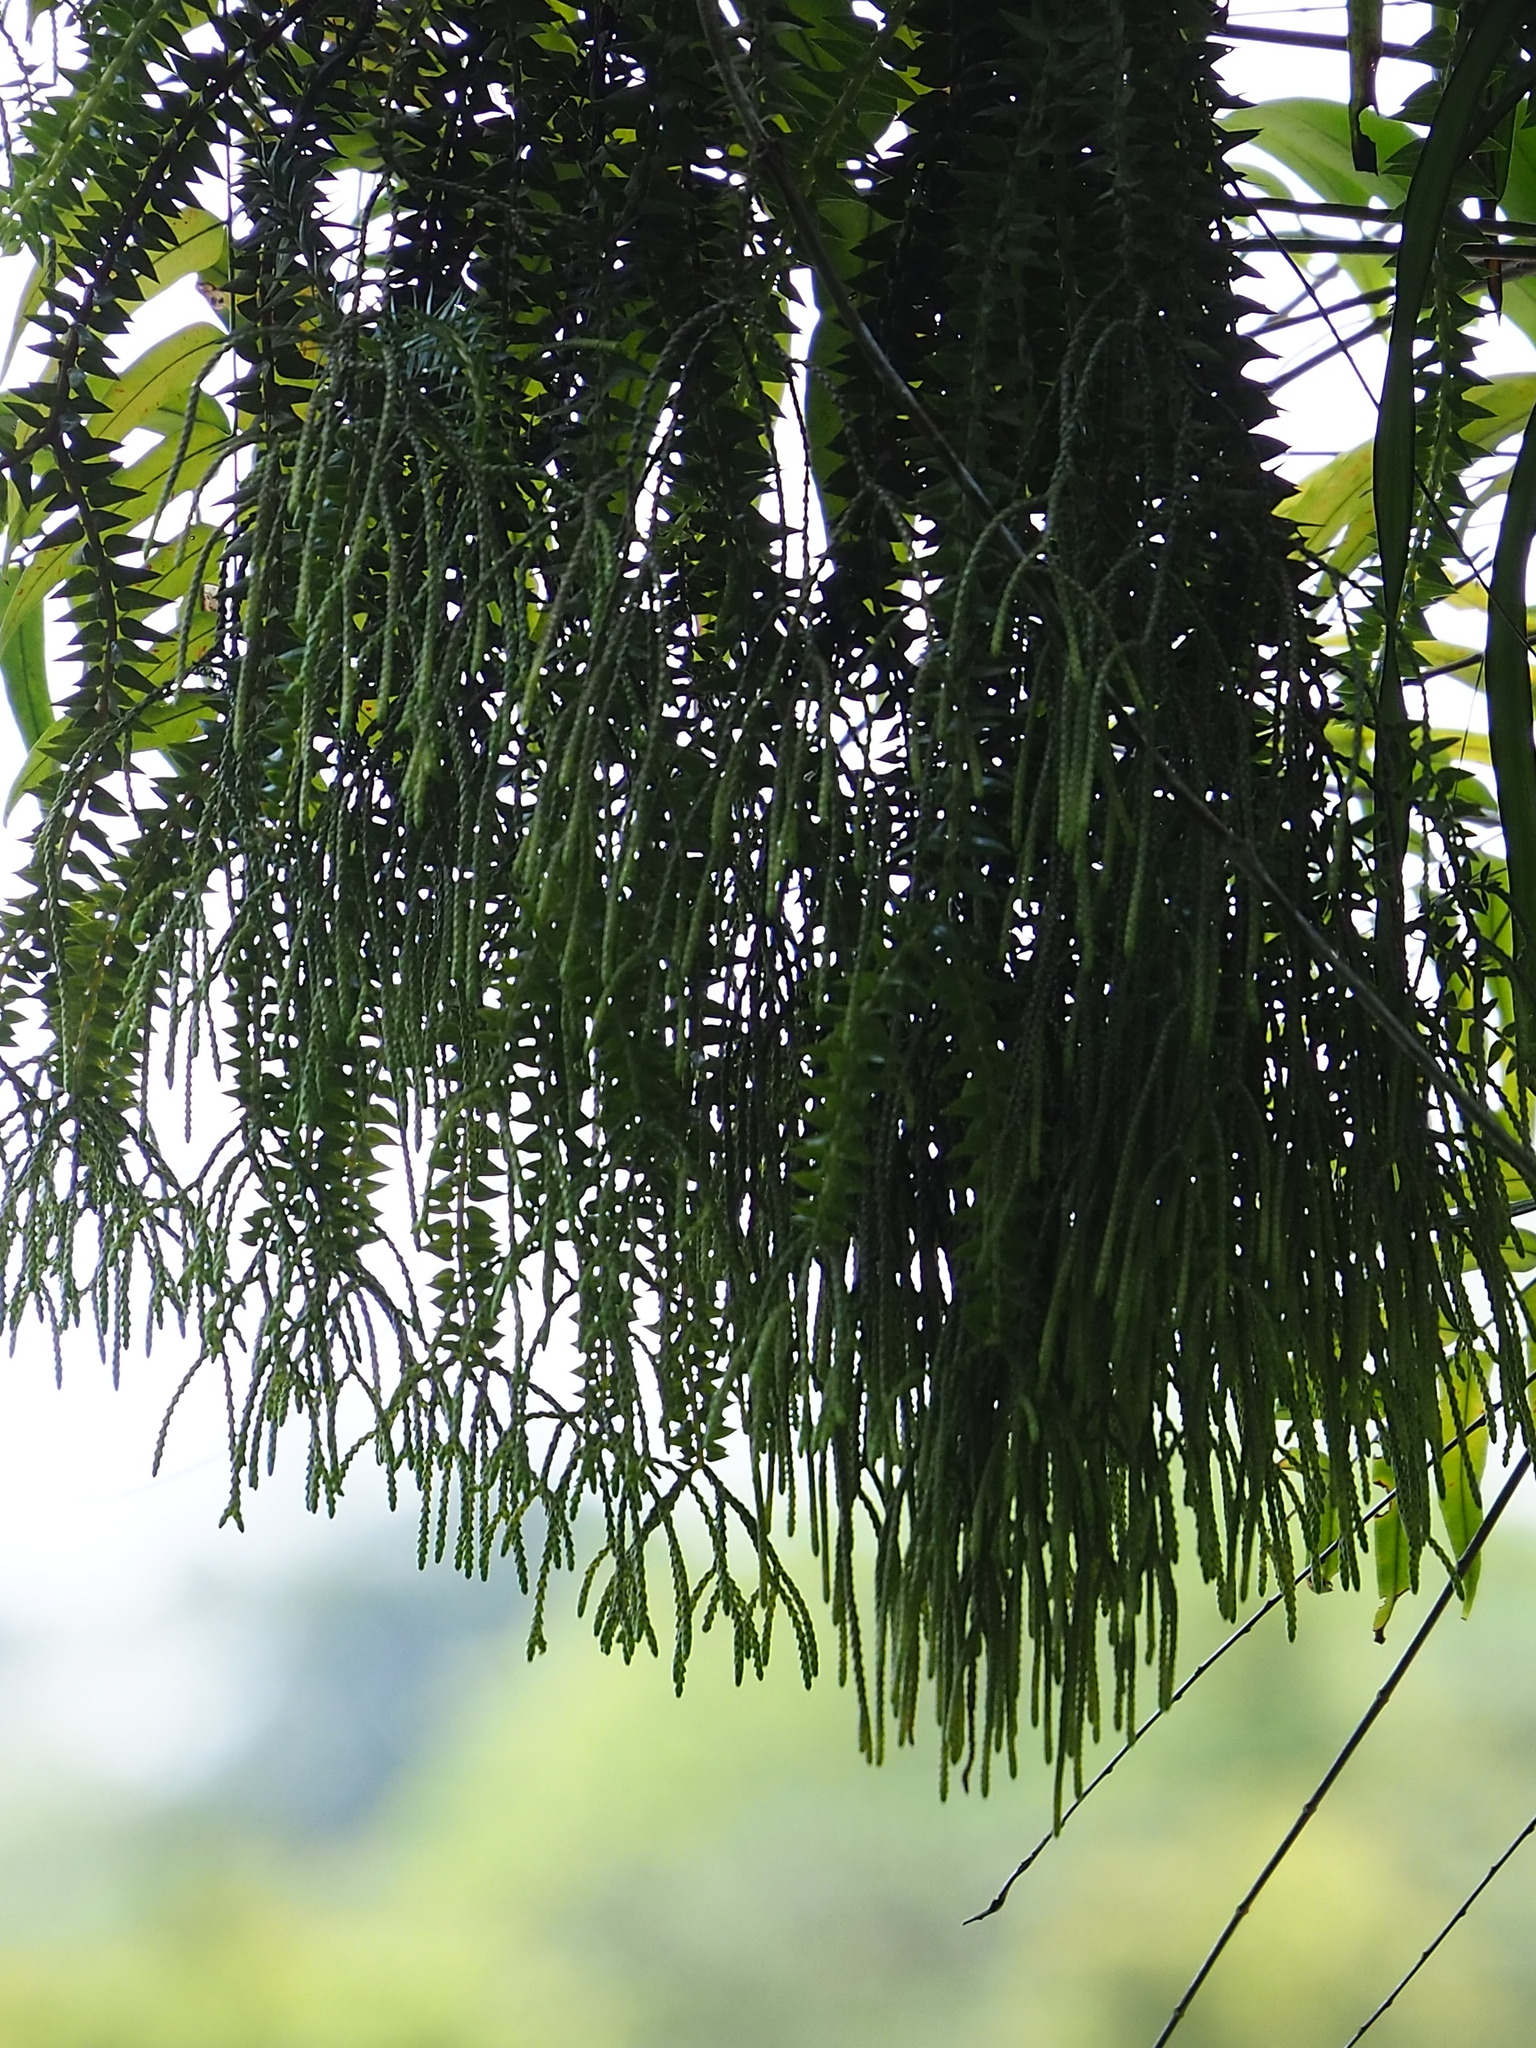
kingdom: Plantae
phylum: Tracheophyta
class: Lycopodiopsida
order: Lycopodiales
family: Lycopodiaceae
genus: Phlegmariurus
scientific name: Phlegmariurus phlegmaria
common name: Coarse tassel-fern
